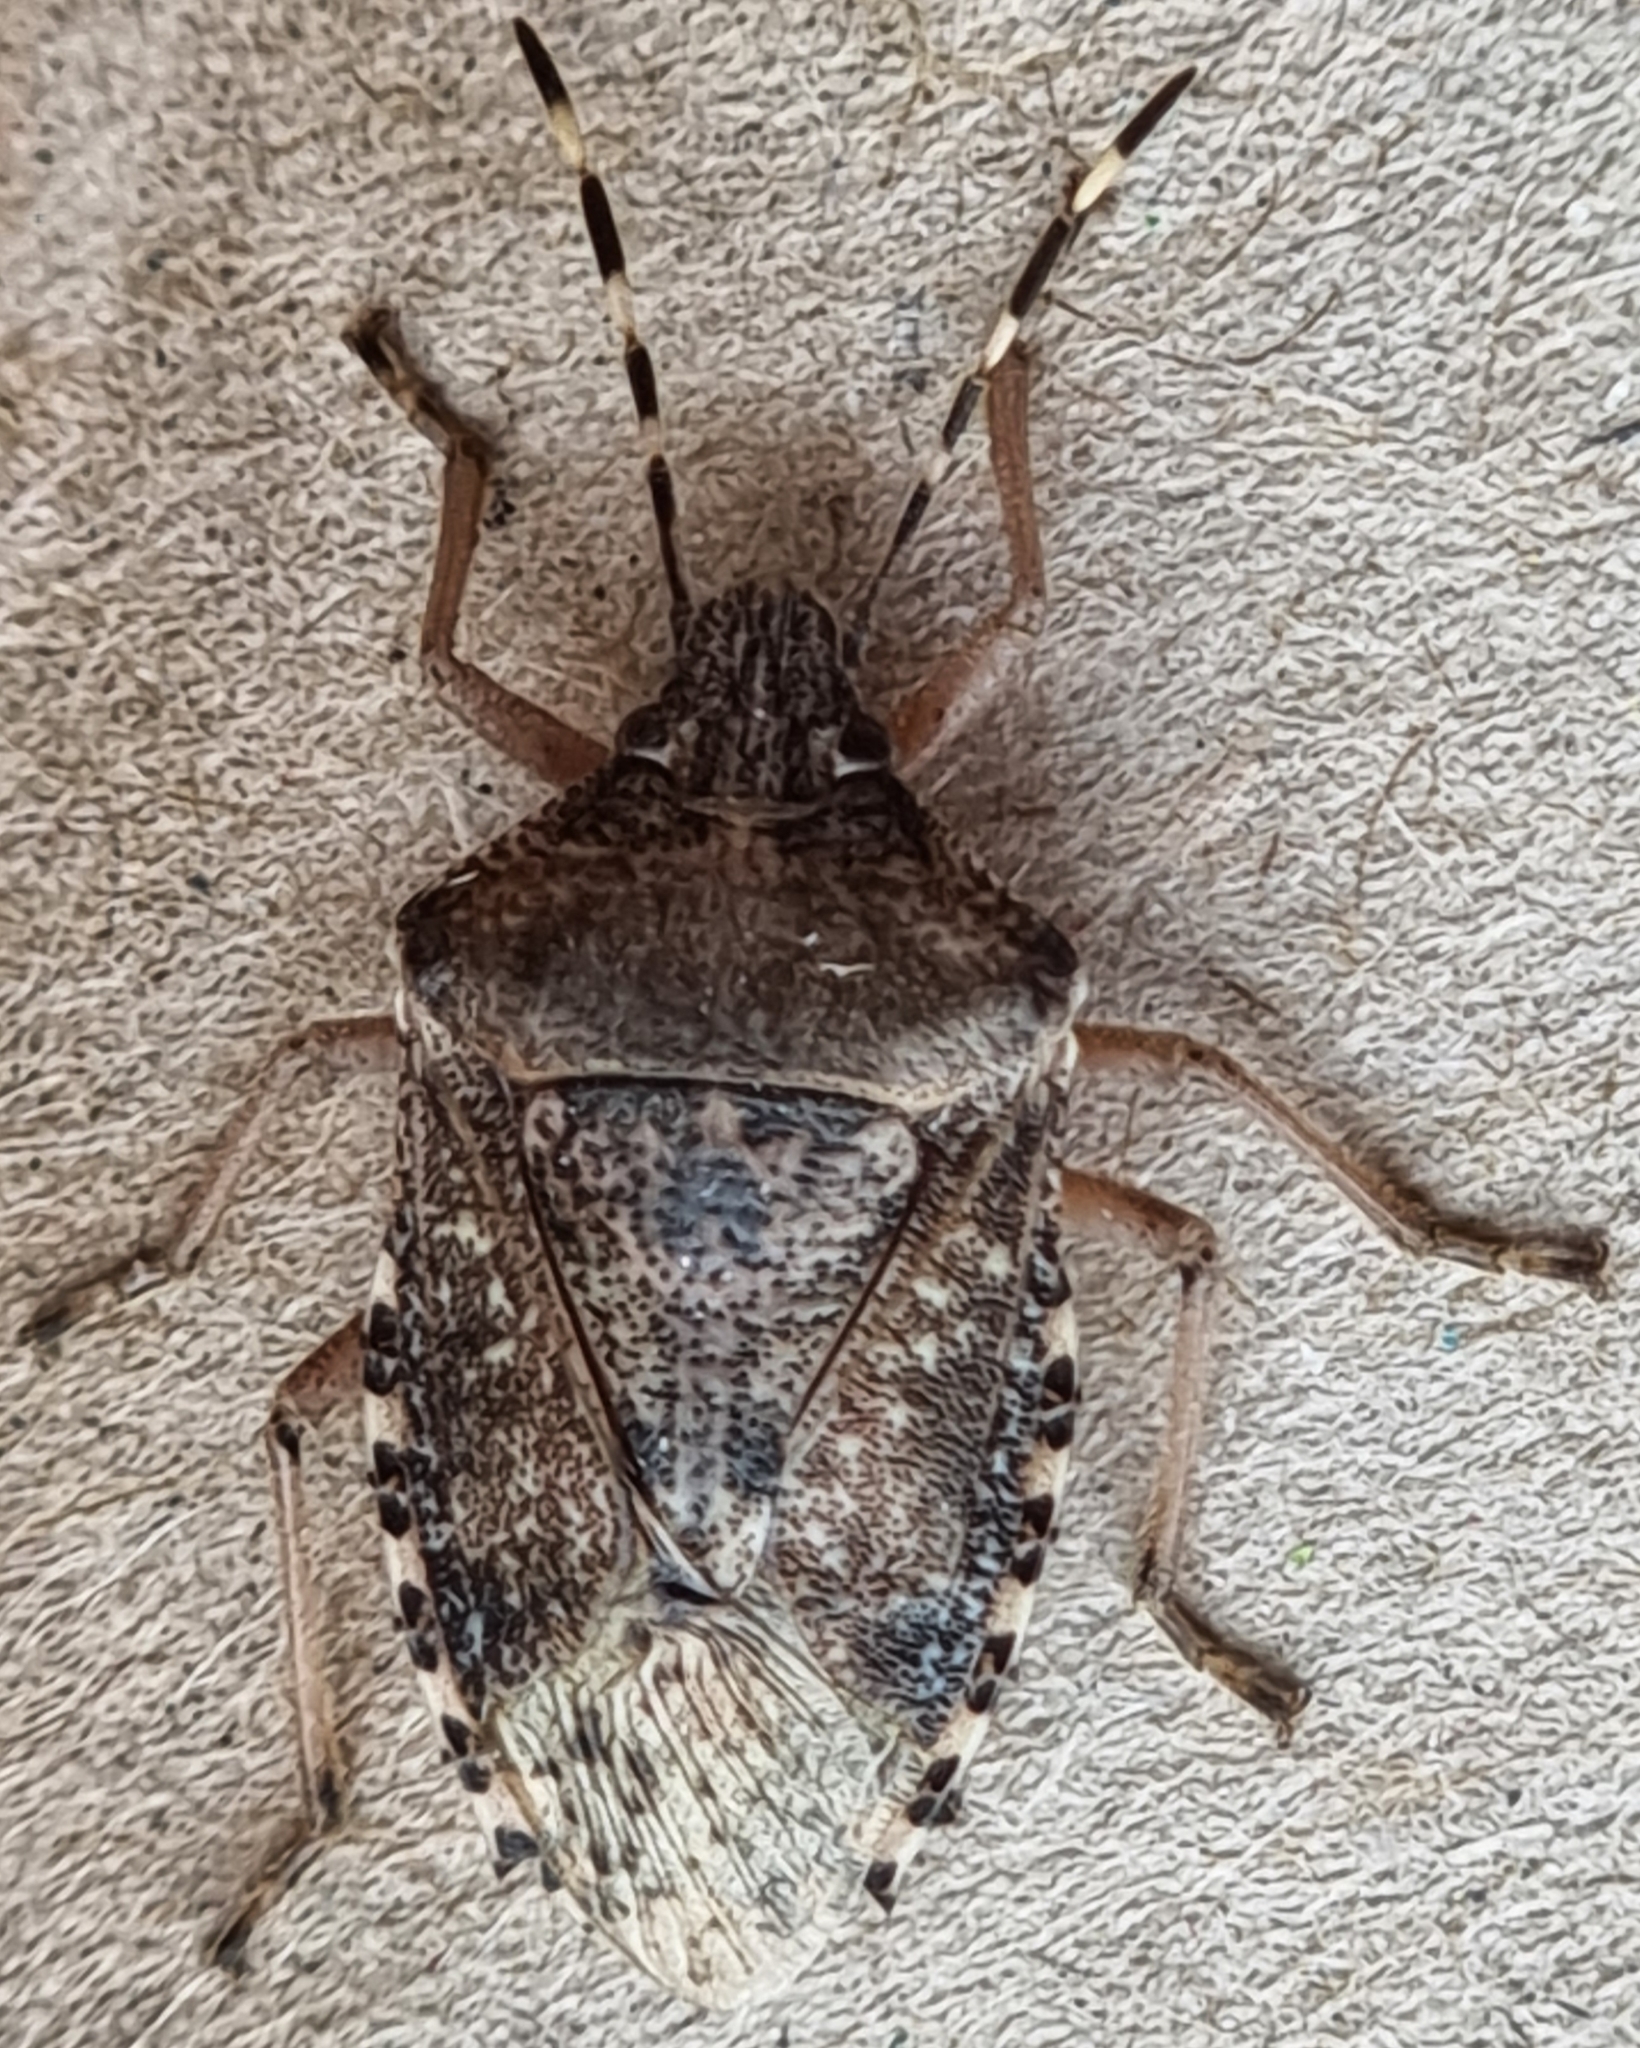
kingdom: Animalia
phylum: Arthropoda
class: Insecta
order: Hemiptera
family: Pentatomidae
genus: Rhaphigaster
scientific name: Rhaphigaster nebulosa
